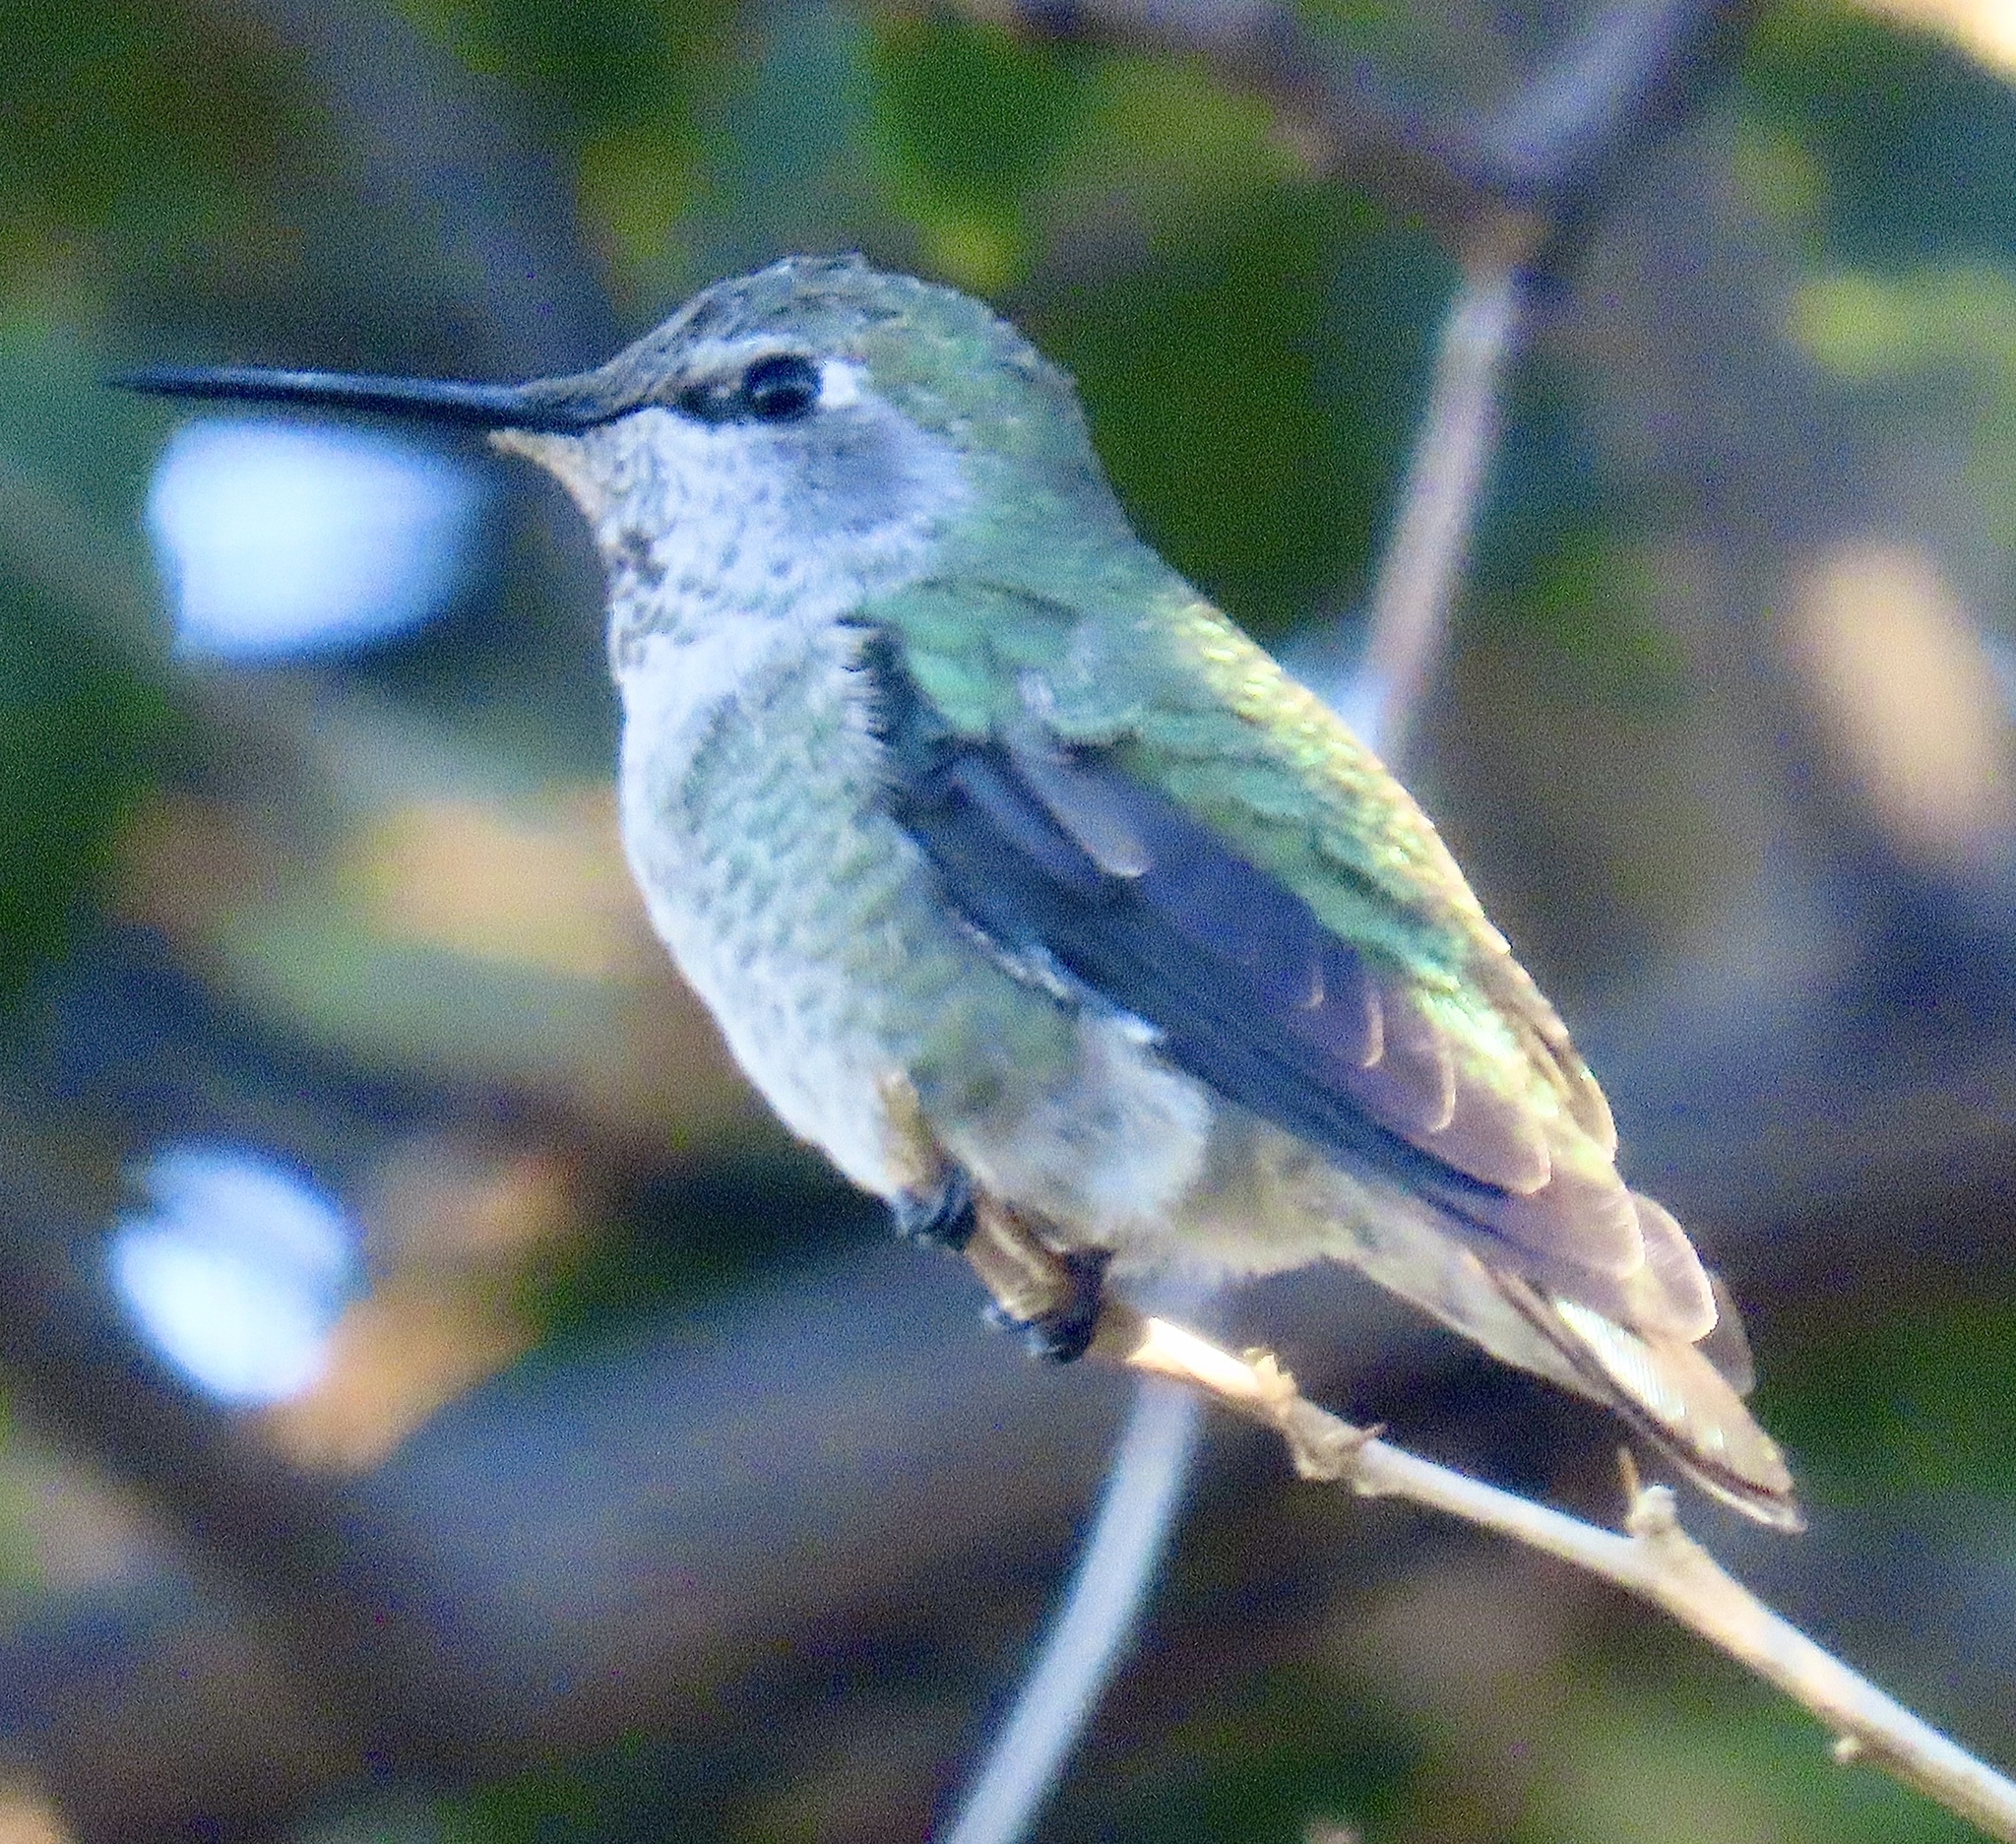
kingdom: Animalia
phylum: Chordata
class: Aves
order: Apodiformes
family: Trochilidae
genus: Calypte
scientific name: Calypte anna
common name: Anna's hummingbird
